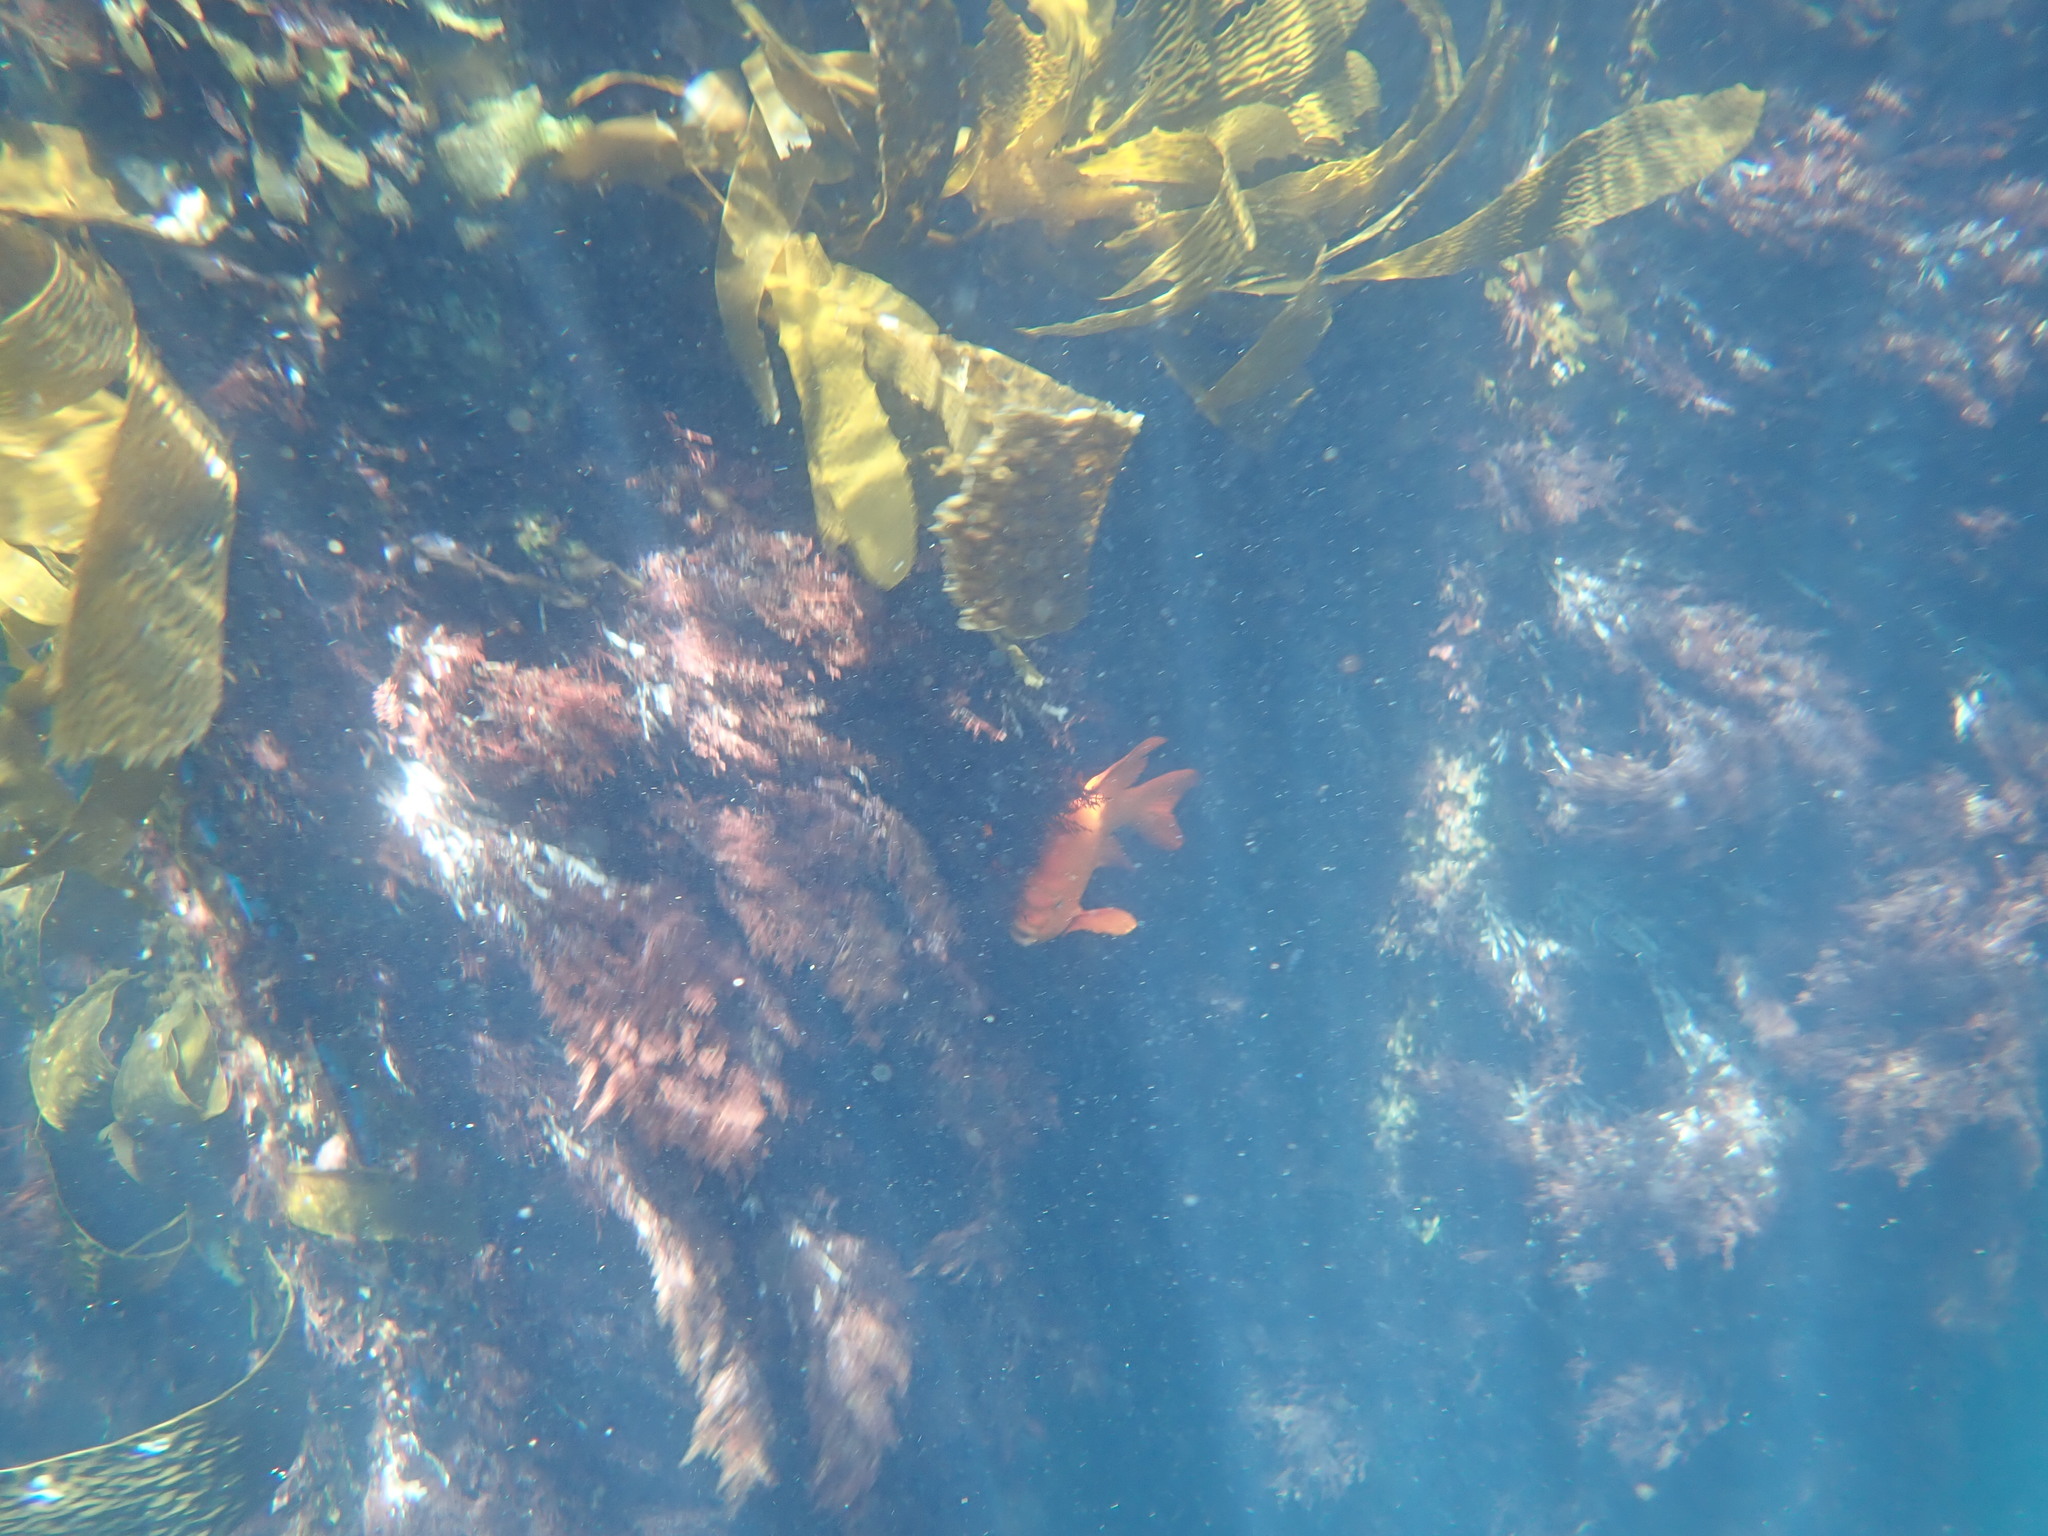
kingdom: Animalia
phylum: Chordata
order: Perciformes
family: Pomacentridae
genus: Hypsypops
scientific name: Hypsypops rubicundus
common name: Garibaldi
